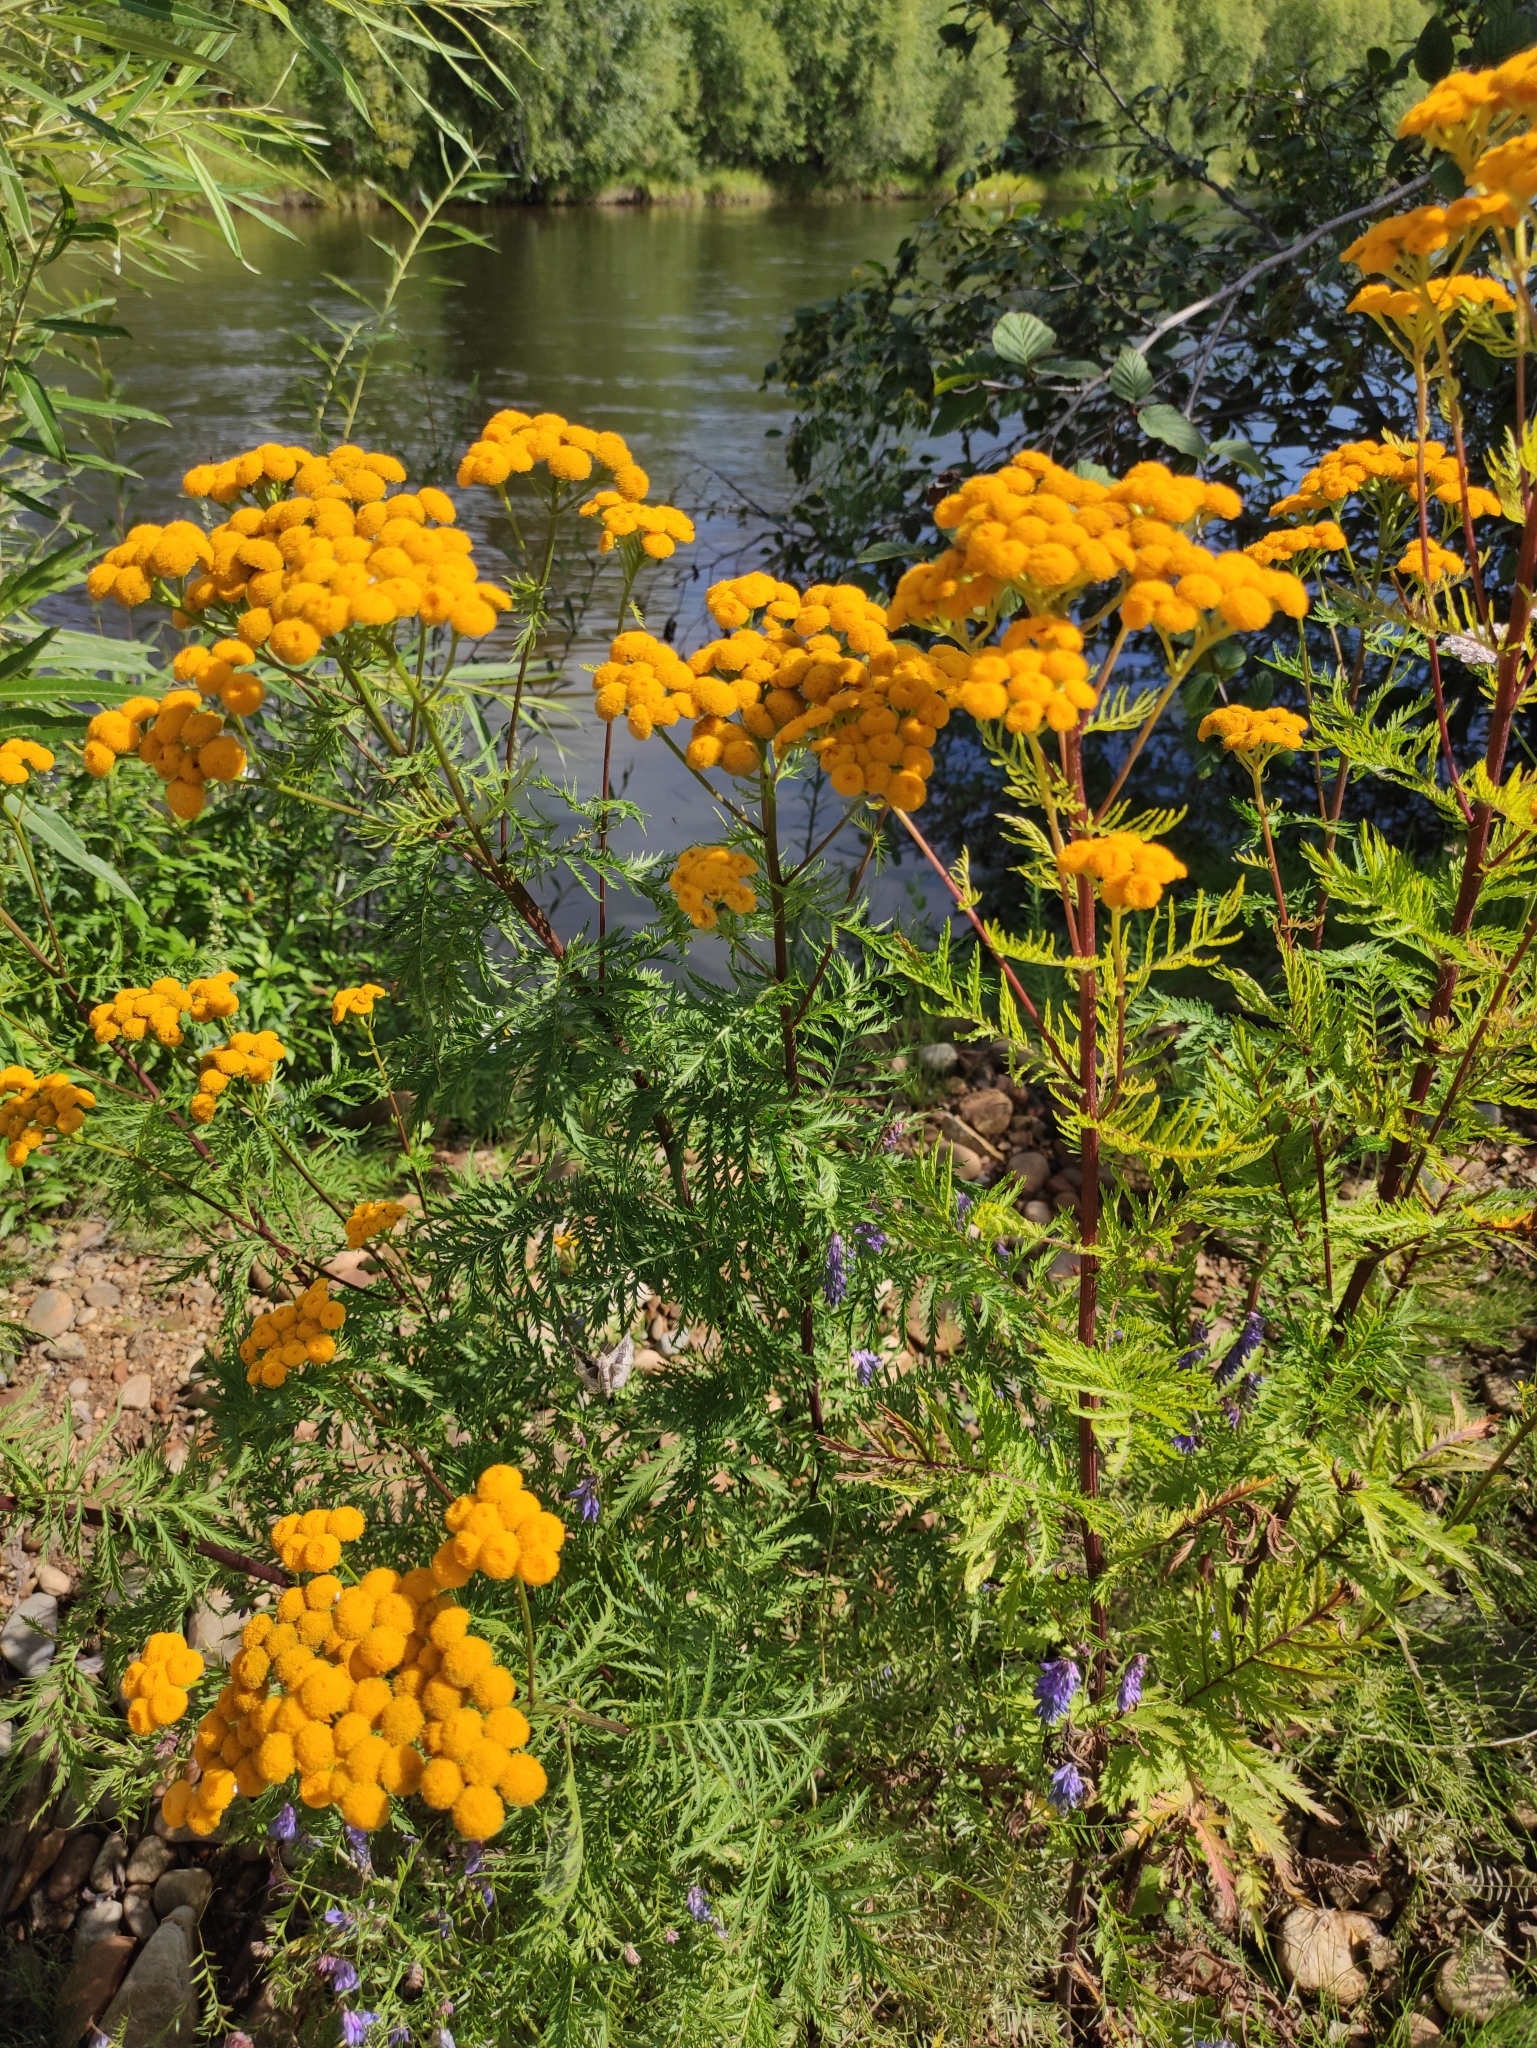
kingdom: Plantae
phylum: Tracheophyta
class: Magnoliopsida
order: Asterales
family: Asteraceae
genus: Tanacetum
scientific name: Tanacetum vulgare
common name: Common tansy
